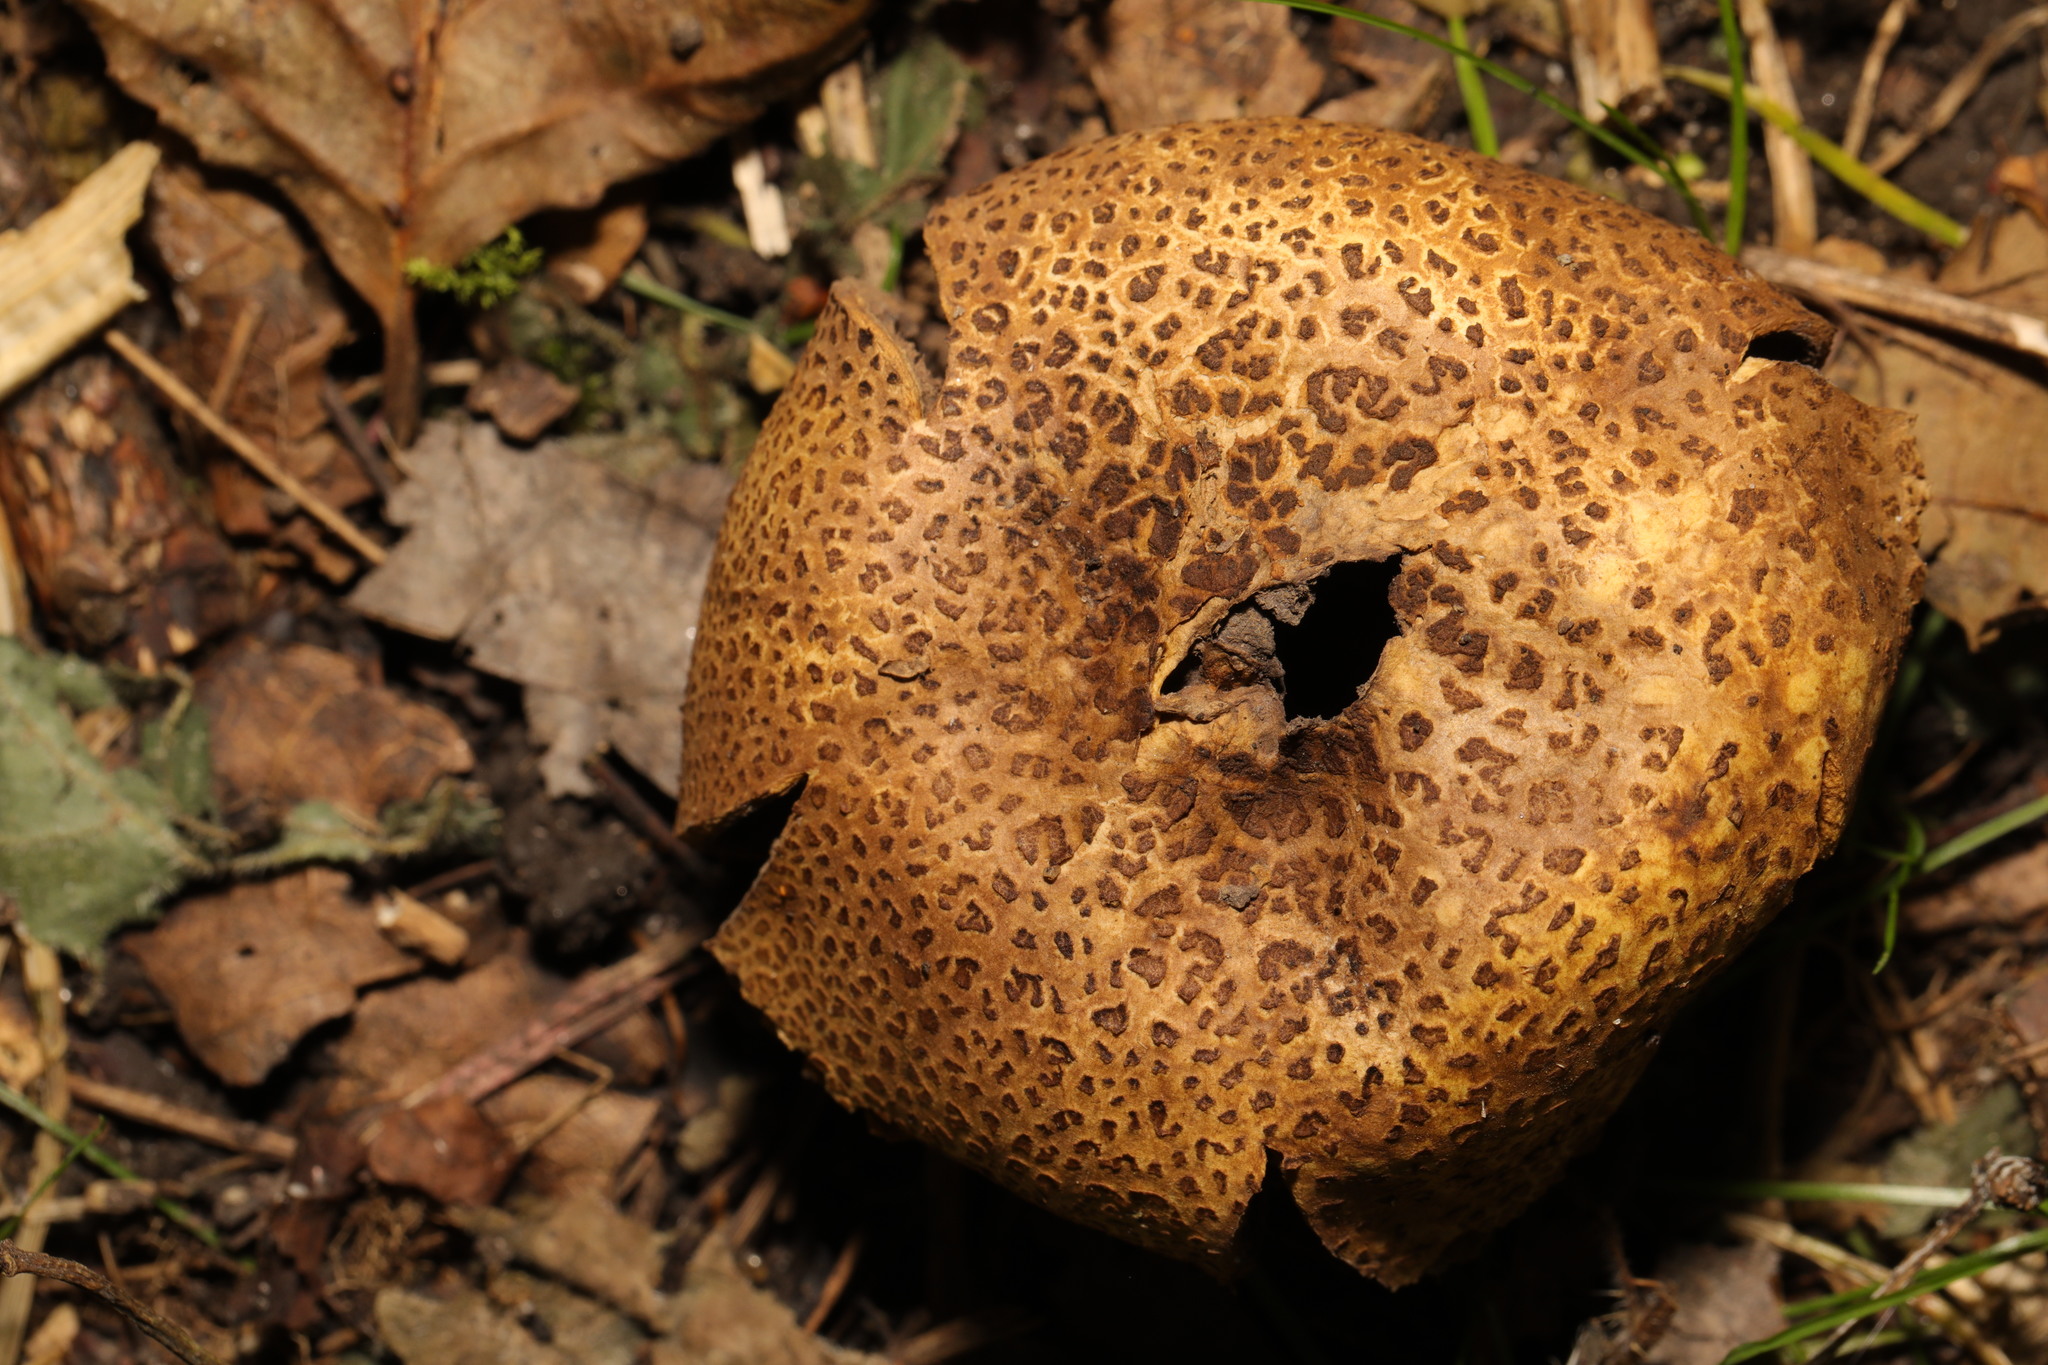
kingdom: Fungi
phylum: Basidiomycota
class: Agaricomycetes
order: Boletales
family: Sclerodermataceae
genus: Scleroderma
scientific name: Scleroderma citrinum
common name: Common earthball
